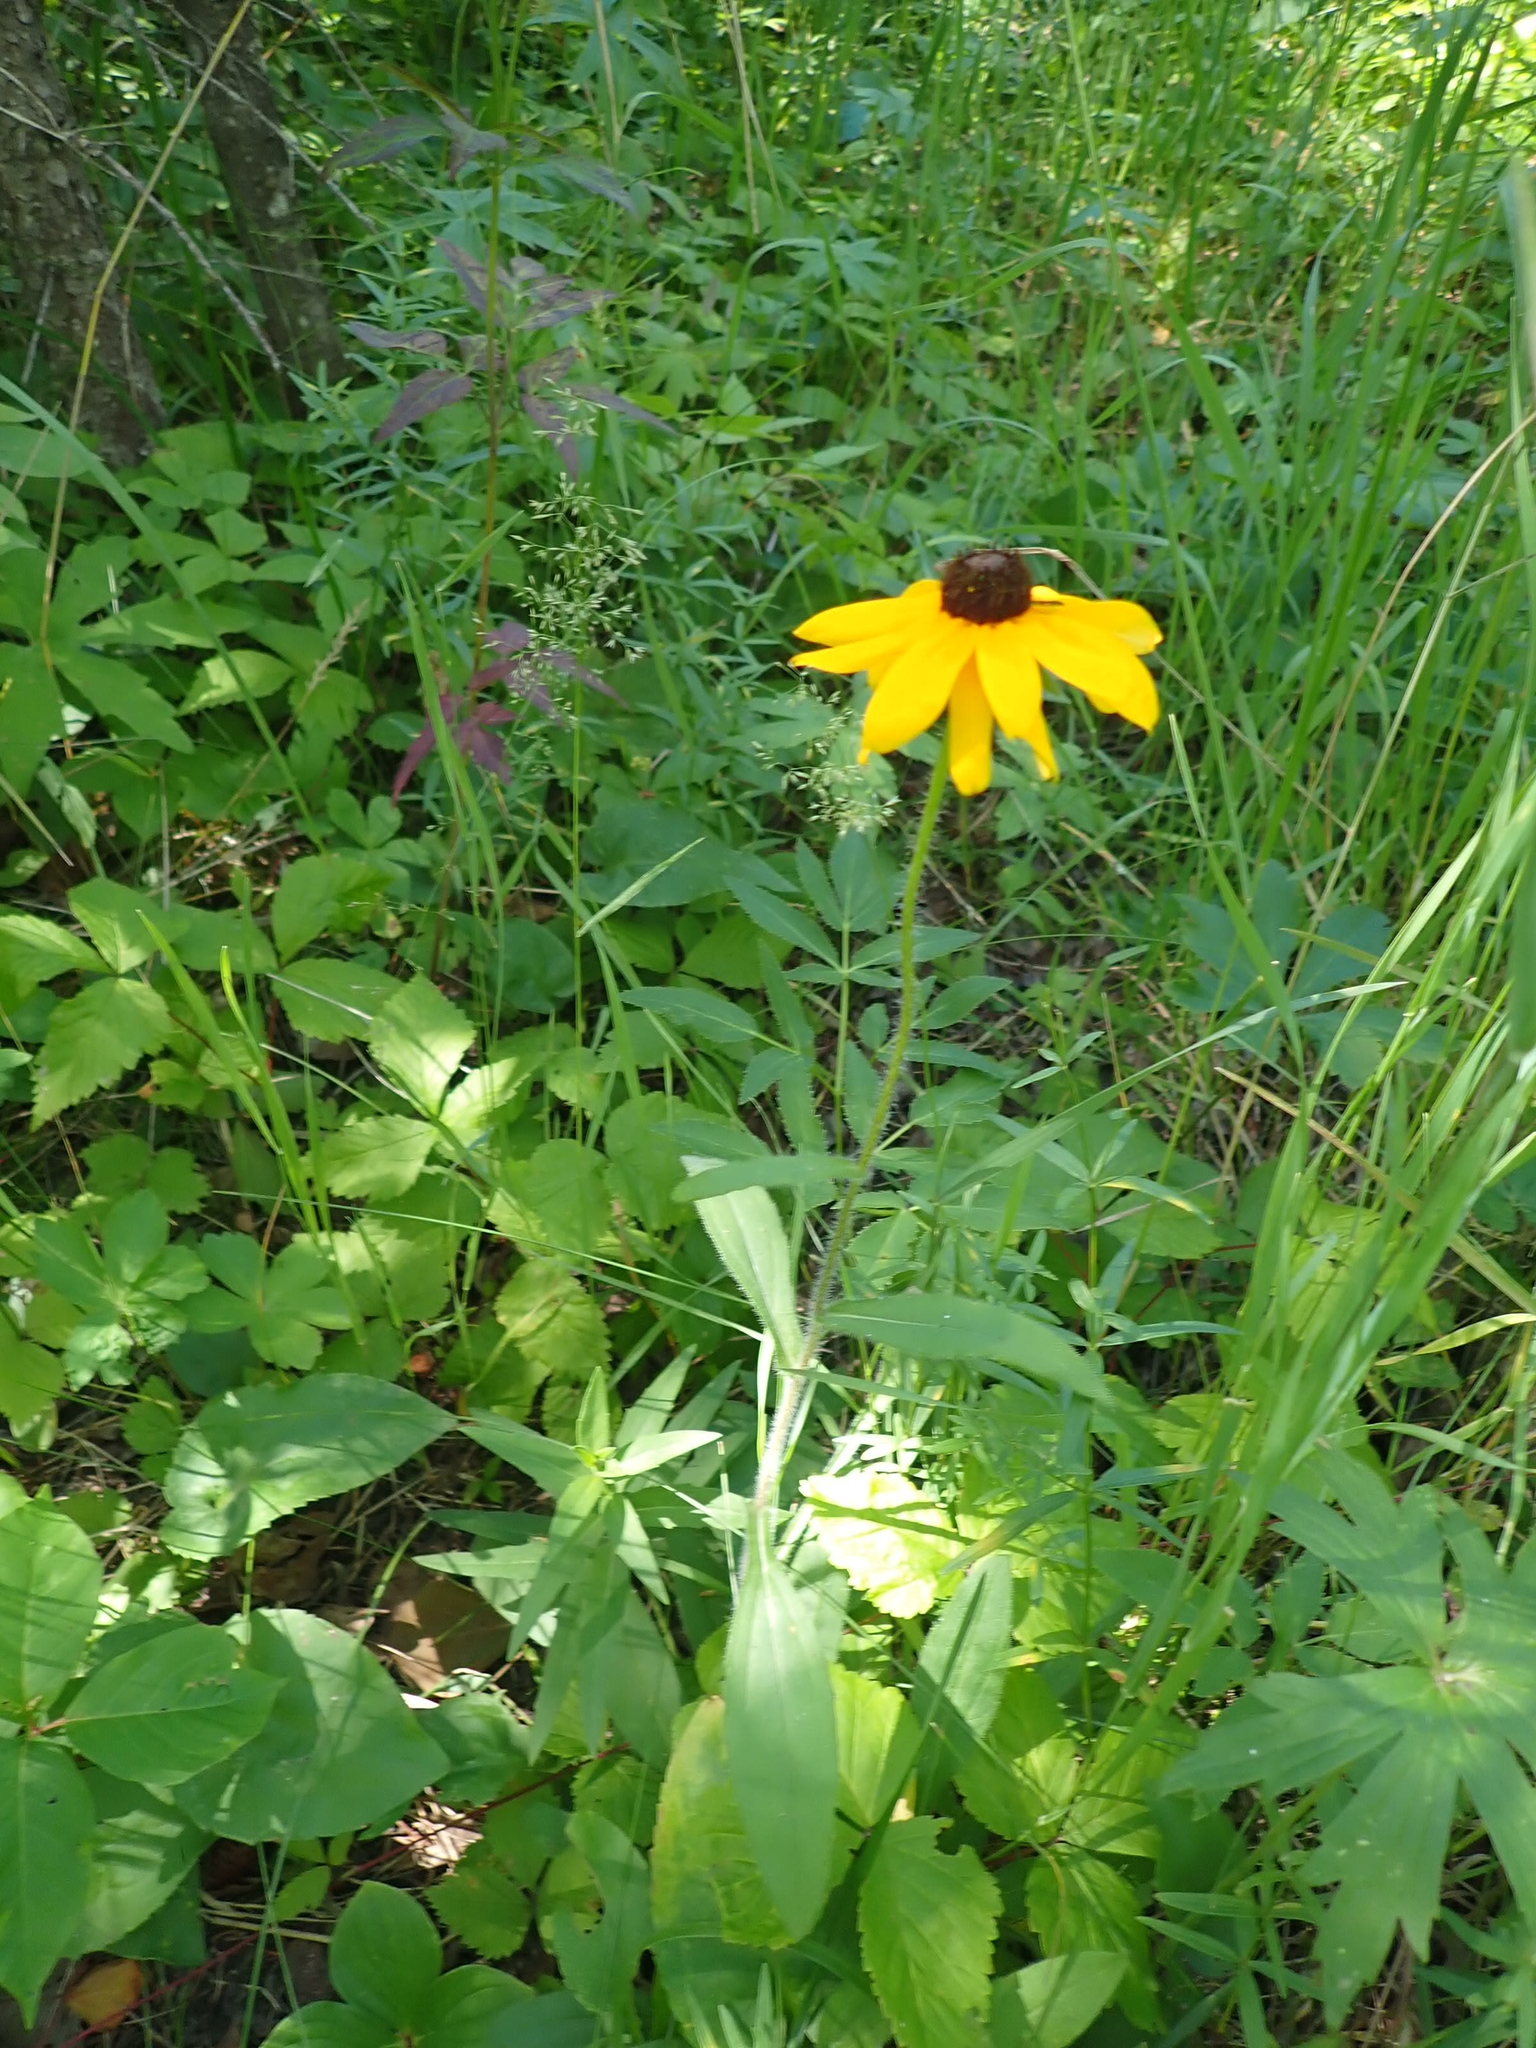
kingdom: Plantae
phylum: Tracheophyta
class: Magnoliopsida
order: Asterales
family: Asteraceae
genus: Rudbeckia
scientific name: Rudbeckia hirta
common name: Black-eyed-susan
